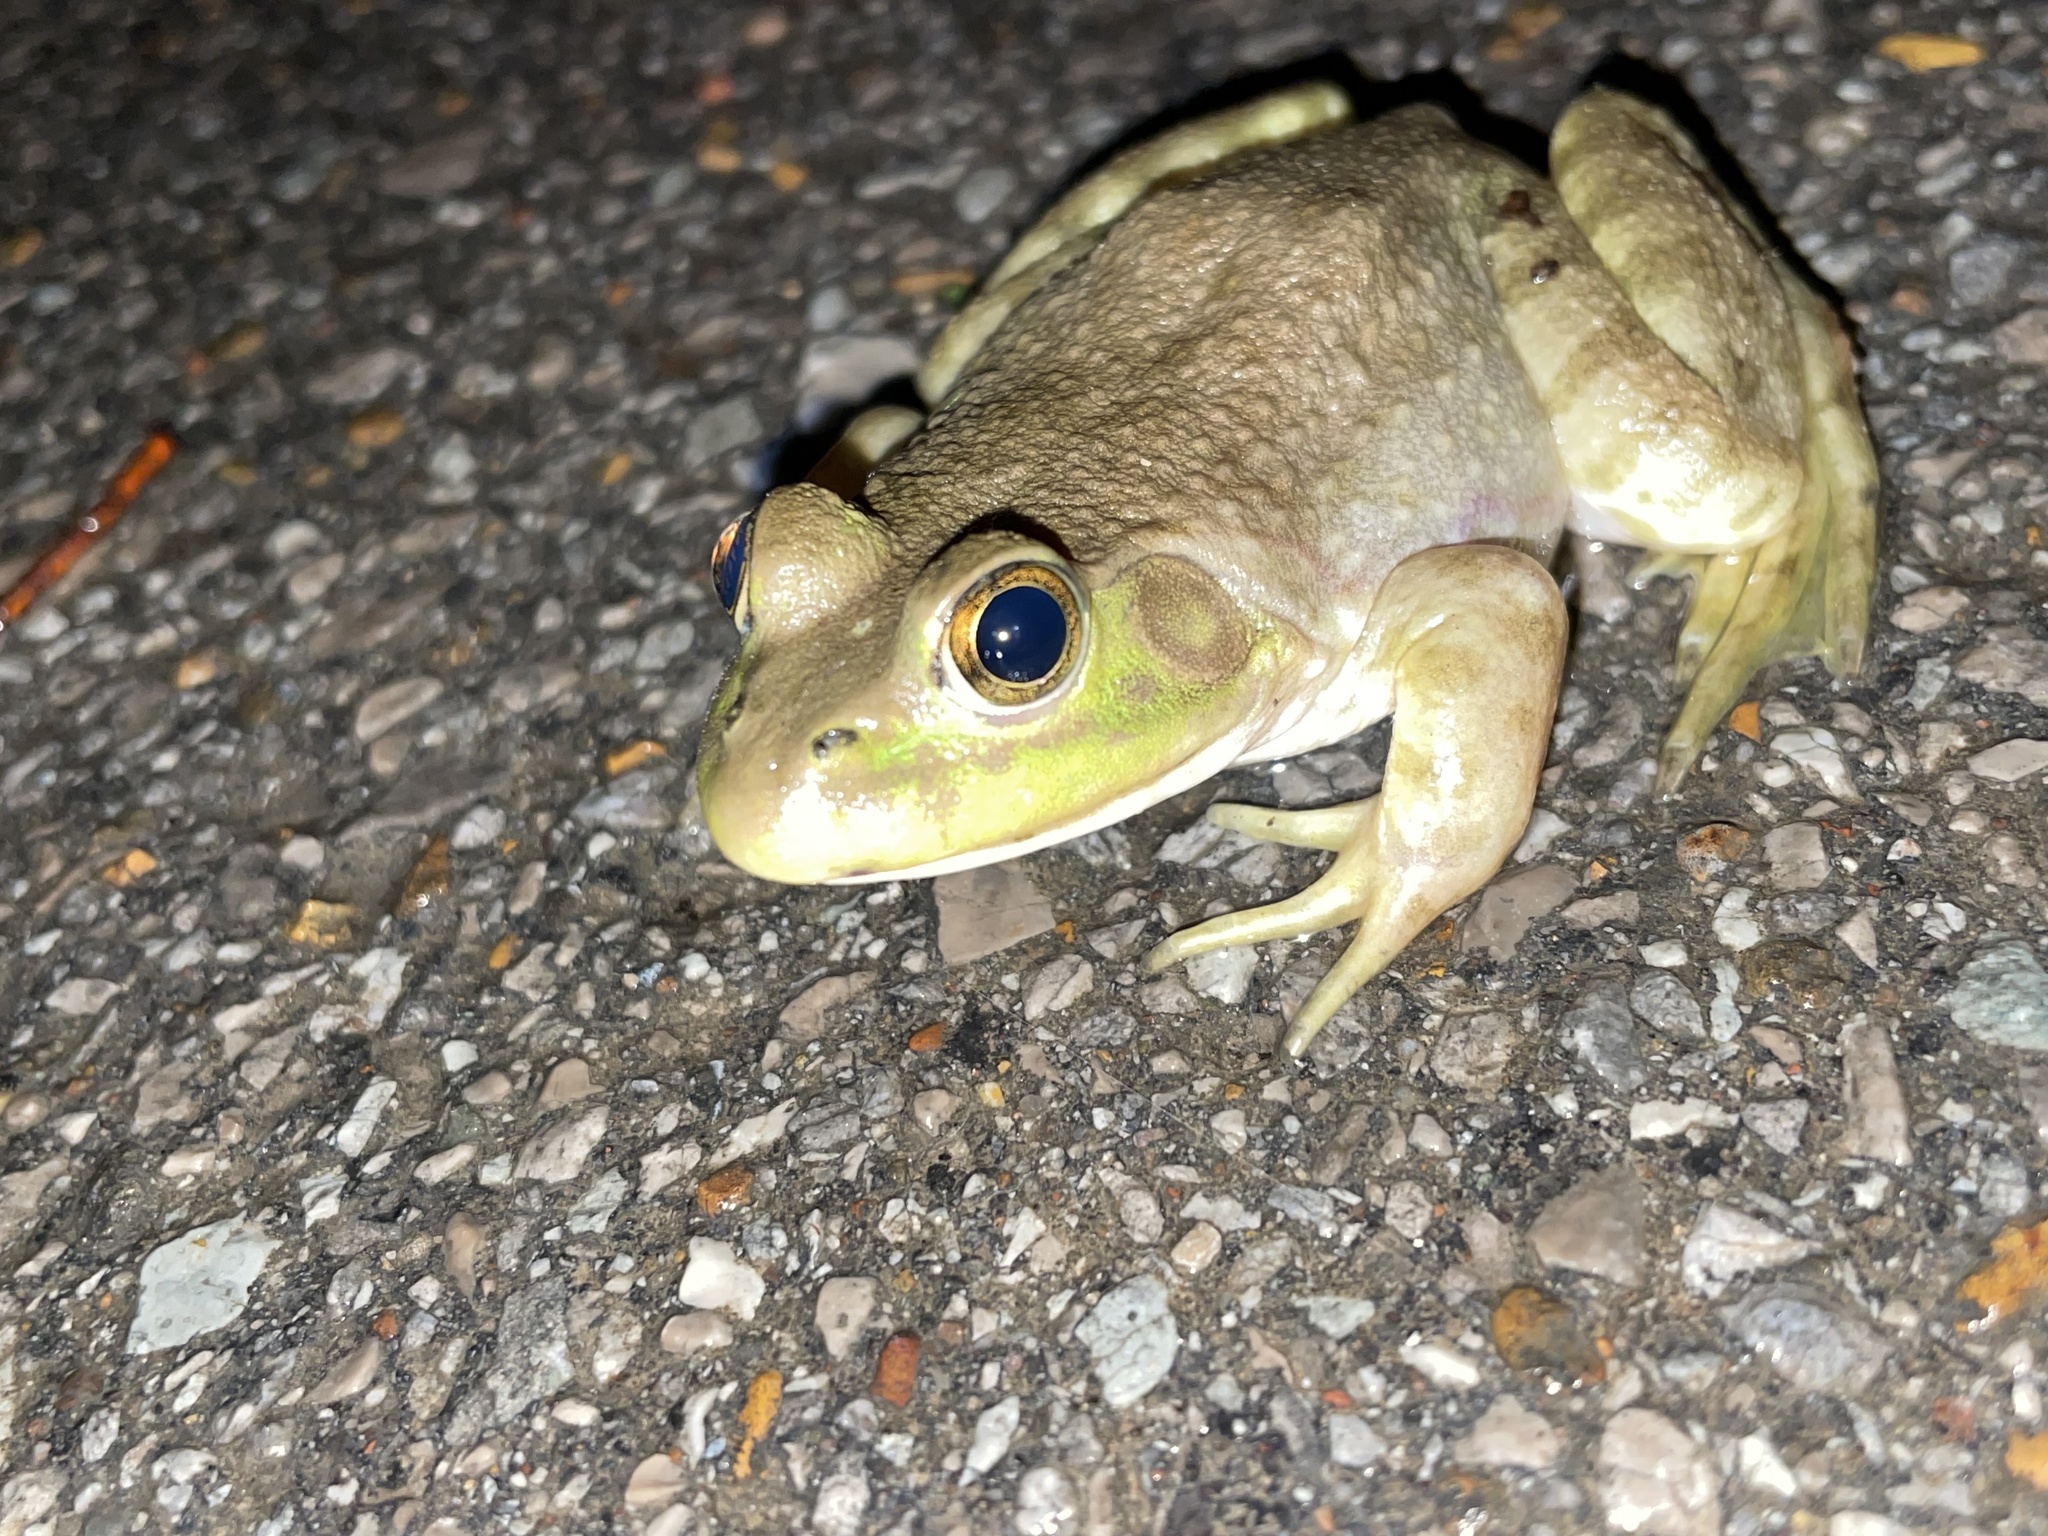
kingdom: Animalia
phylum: Chordata
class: Amphibia
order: Anura
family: Ranidae
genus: Lithobates
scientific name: Lithobates catesbeianus
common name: American bullfrog
